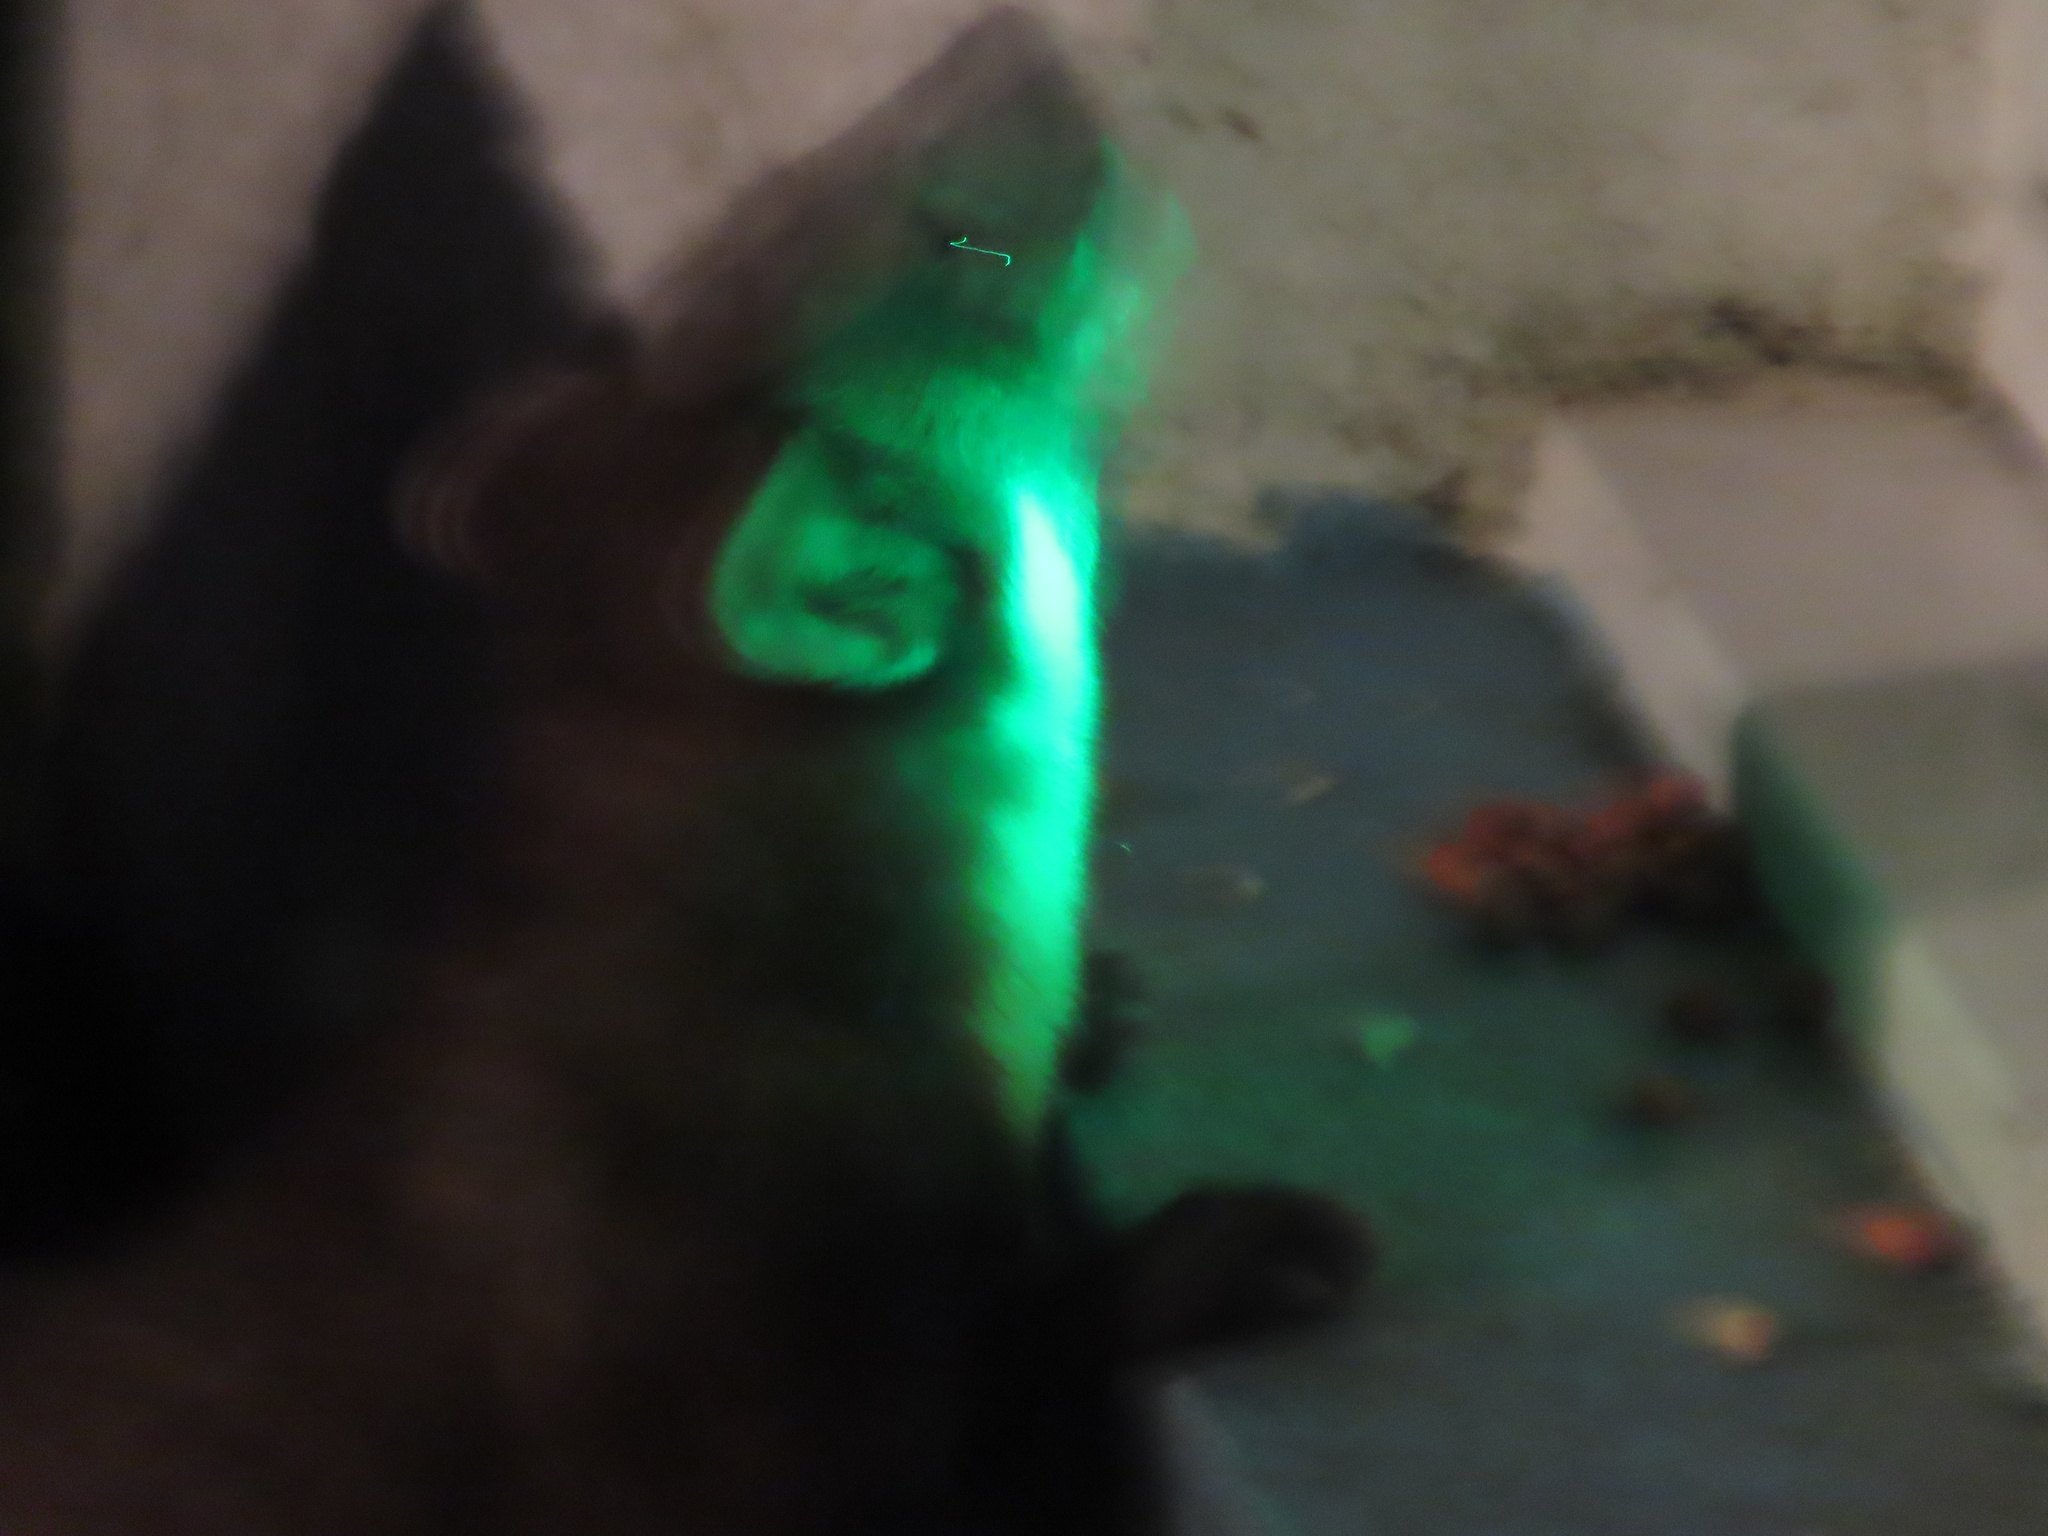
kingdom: Animalia
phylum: Chordata
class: Mammalia
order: Carnivora
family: Mustelidae
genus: Martes
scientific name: Martes martes
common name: European pine marten
